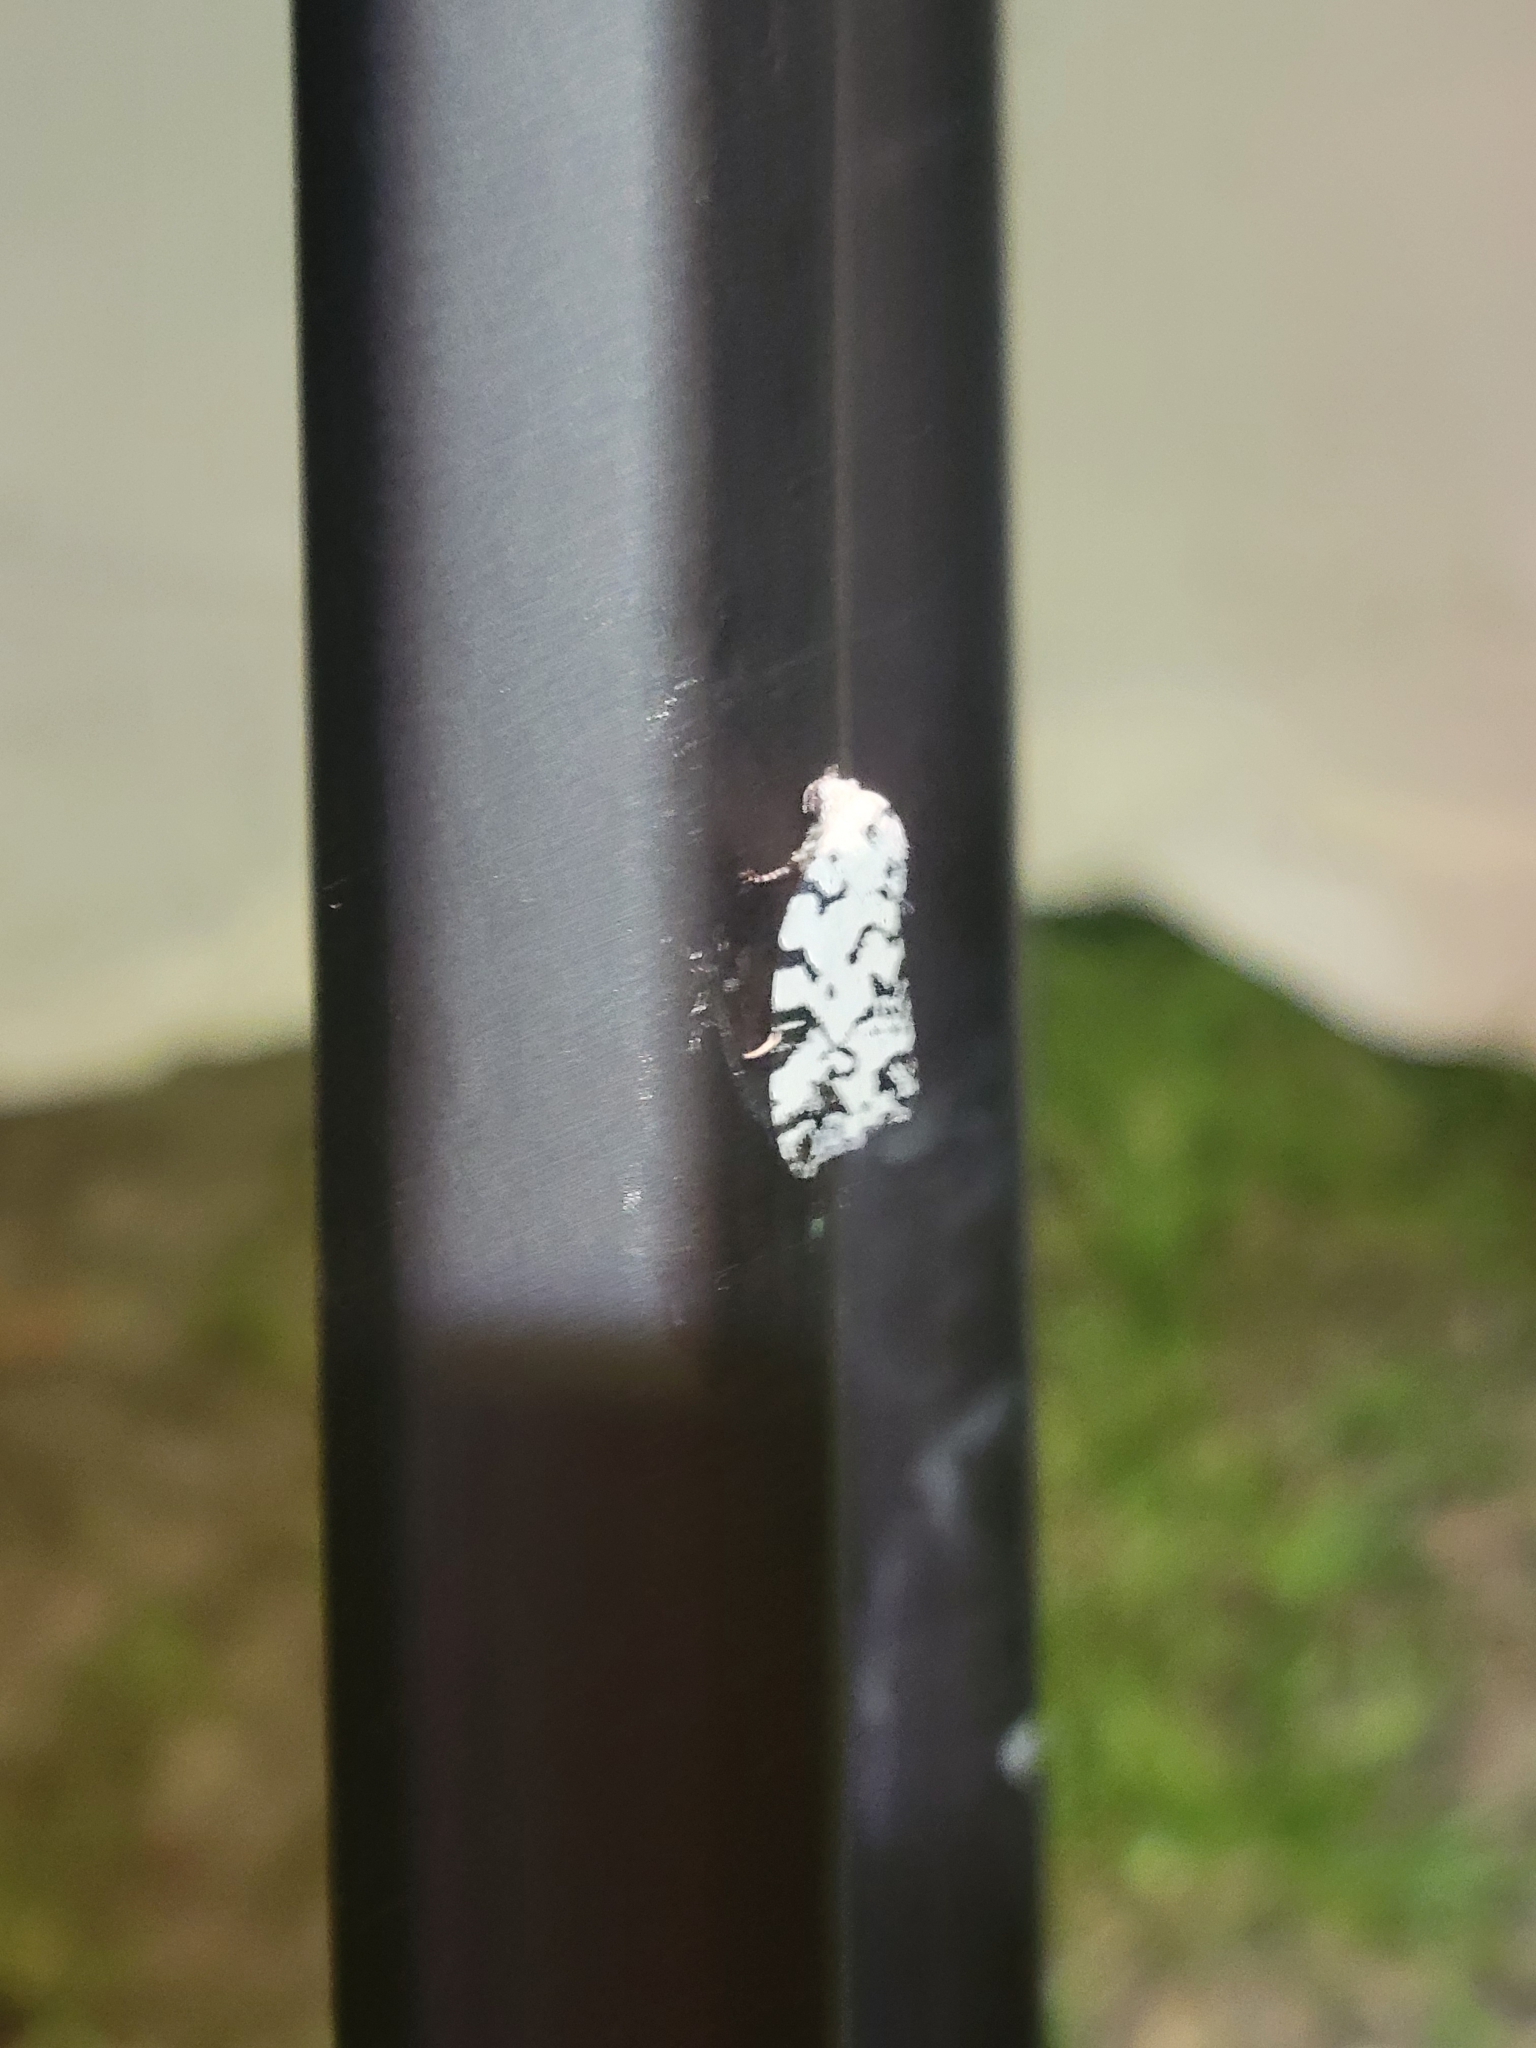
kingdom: Animalia
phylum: Arthropoda
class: Insecta
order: Lepidoptera
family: Noctuidae
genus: Polygrammate
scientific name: Polygrammate hebraeicum
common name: Hebrew moth
